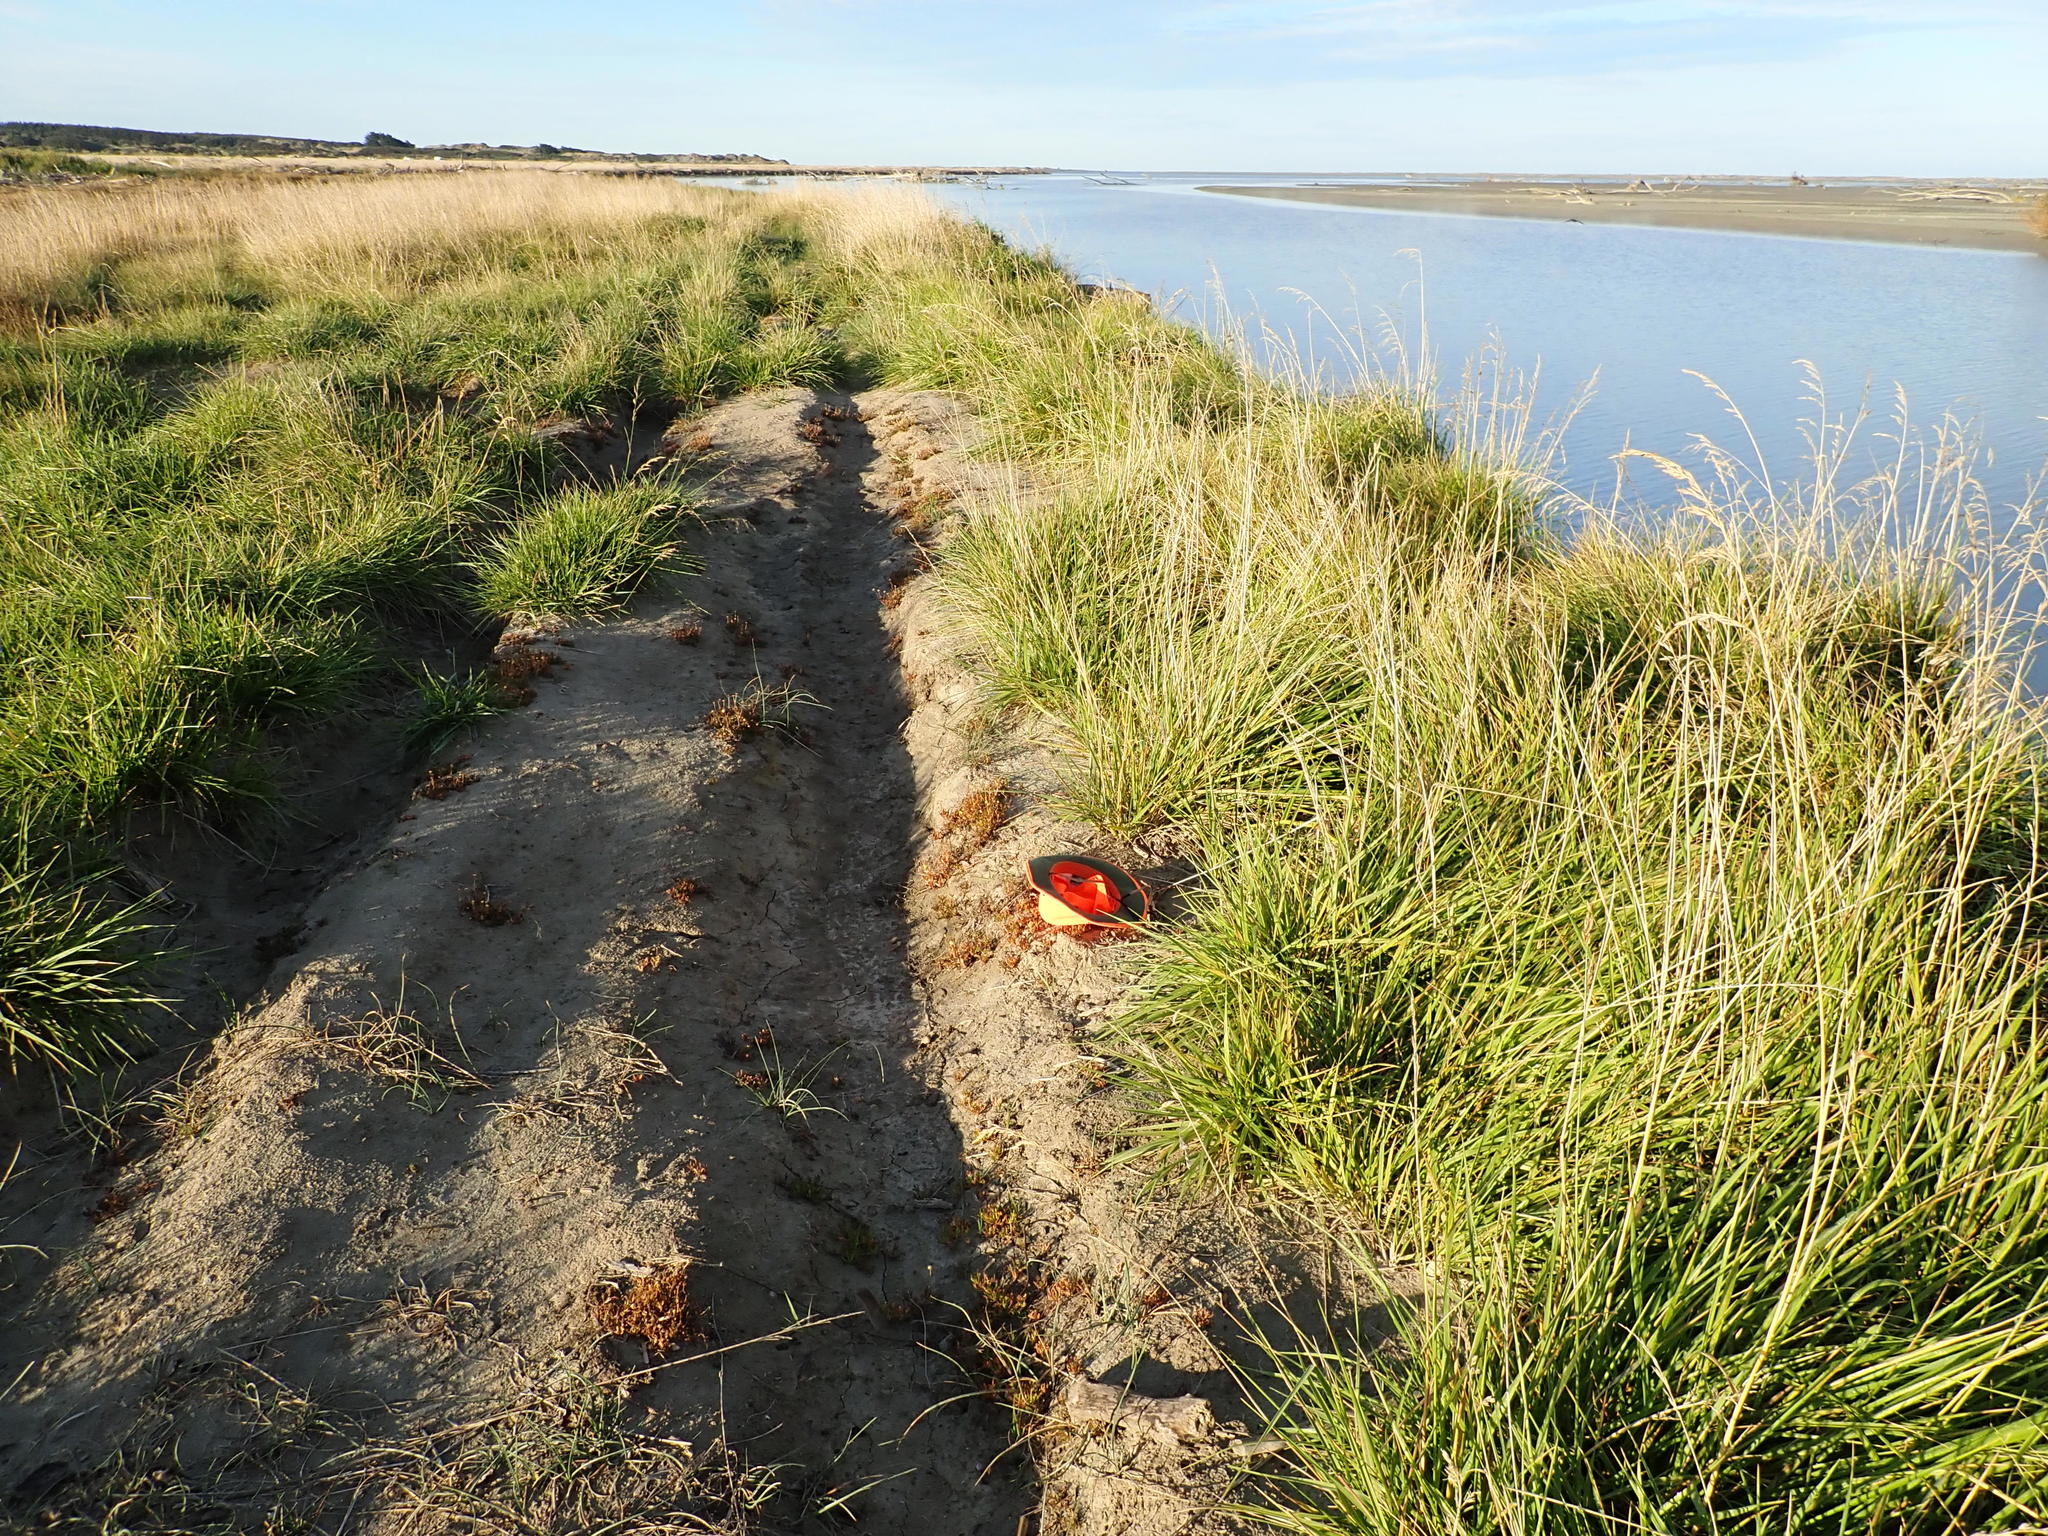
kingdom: Plantae
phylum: Tracheophyta
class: Magnoliopsida
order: Asterales
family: Asteraceae
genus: Cotula
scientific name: Cotula coronopifolia
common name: Buttonweed
